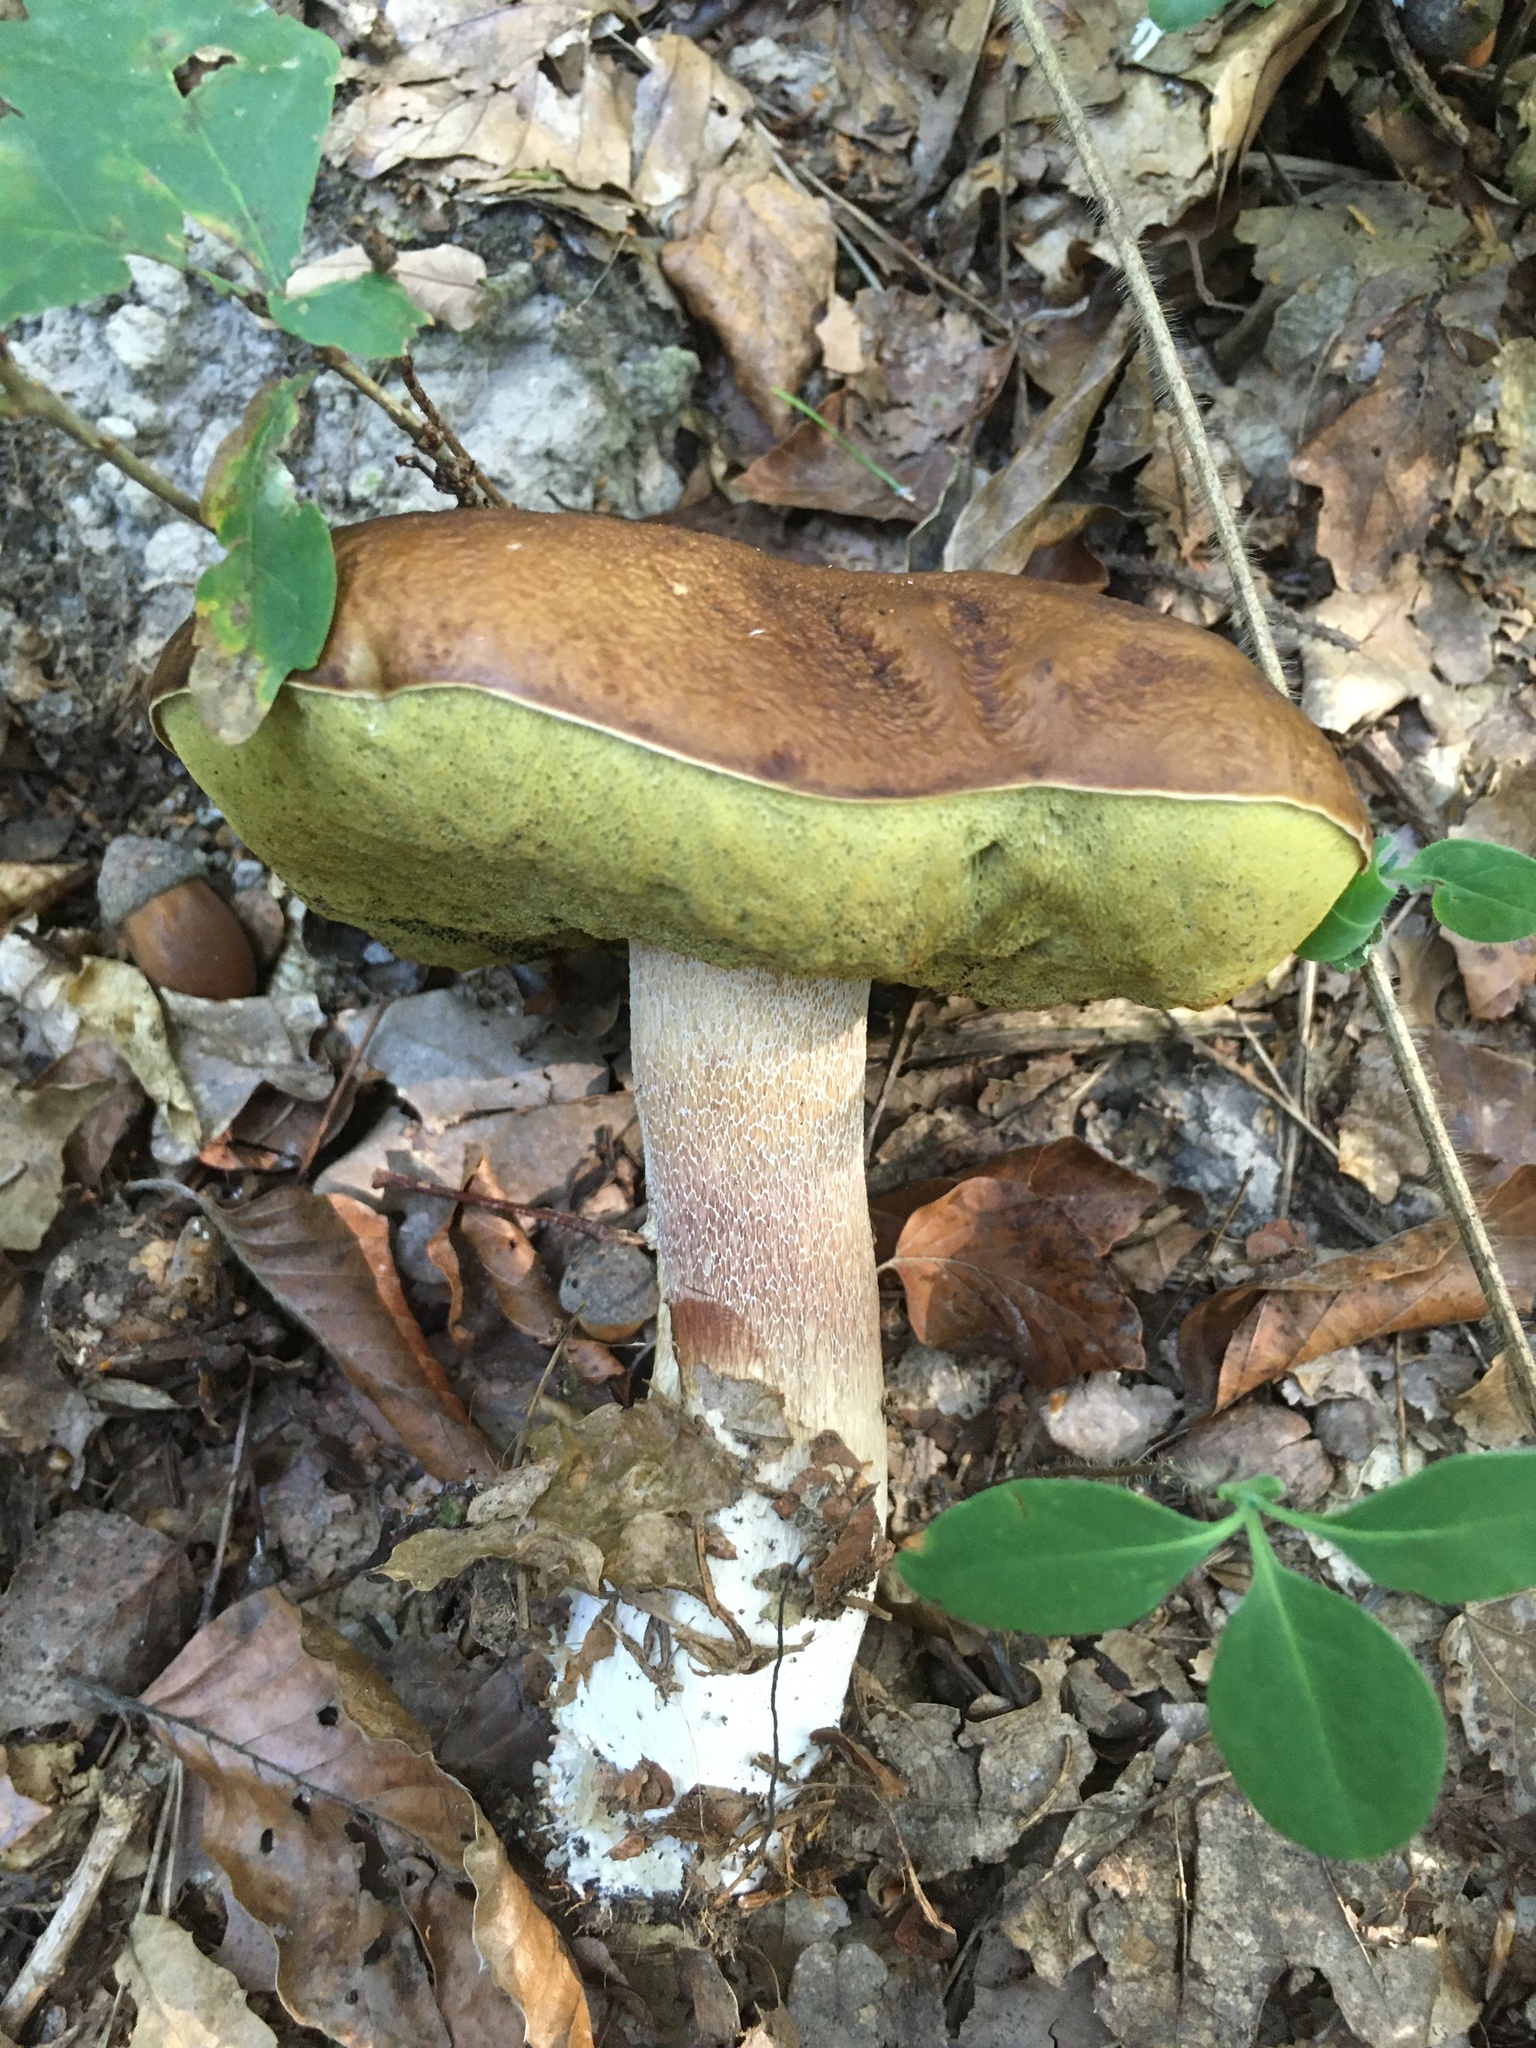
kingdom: Fungi
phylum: Basidiomycota
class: Agaricomycetes
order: Boletales
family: Boletaceae
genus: Boletus
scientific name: Boletus edulis
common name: Cep
